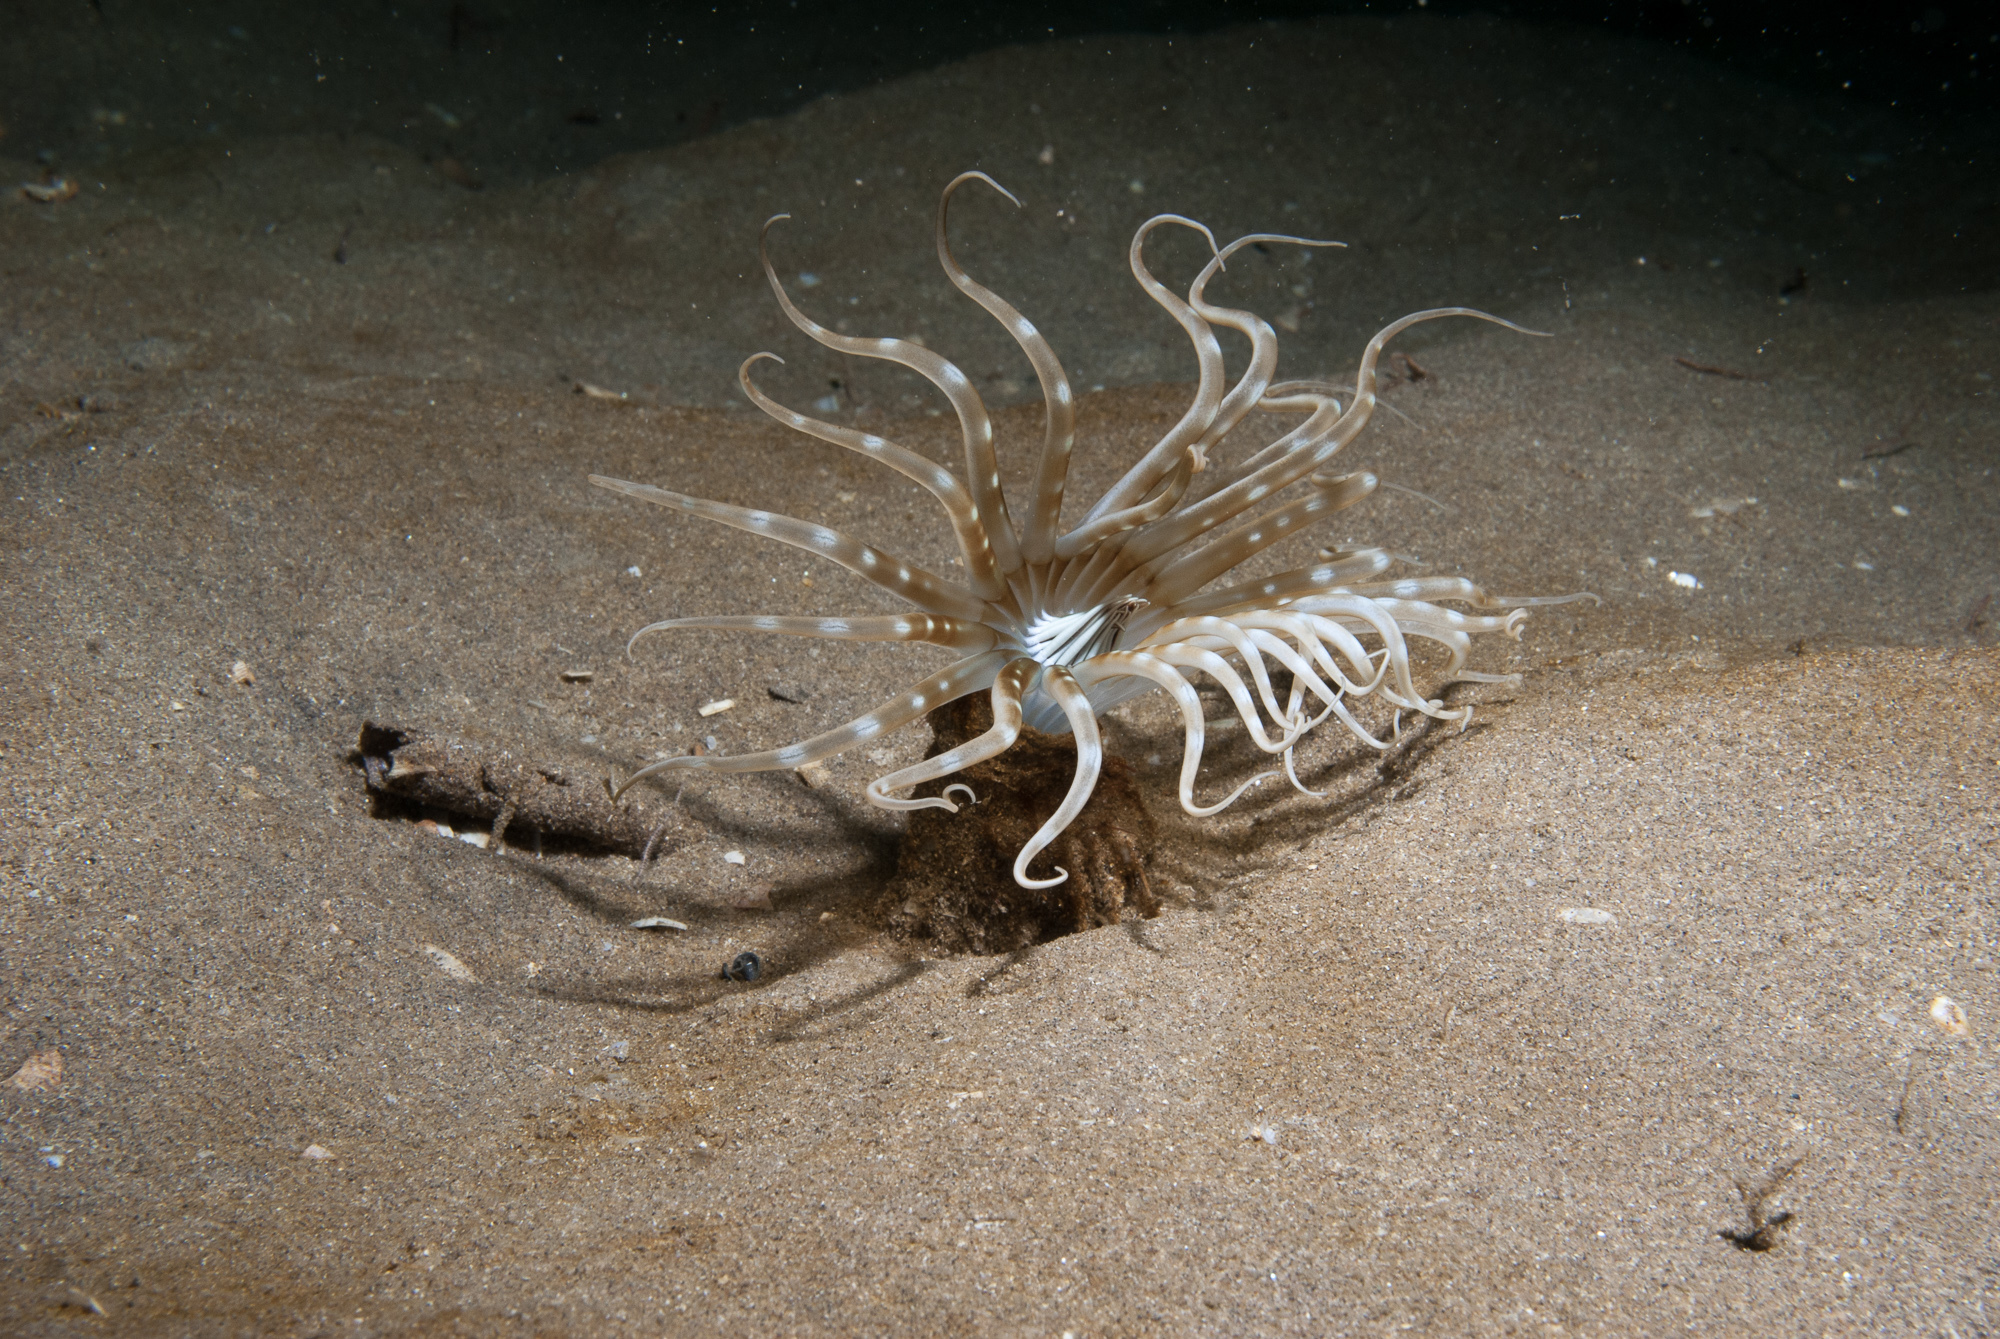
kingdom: Animalia
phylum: Cnidaria
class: Anthozoa
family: Arachnactidae
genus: Arachnanthus
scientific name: Arachnanthus sarsi
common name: Scarce tube-dwelling anemone
